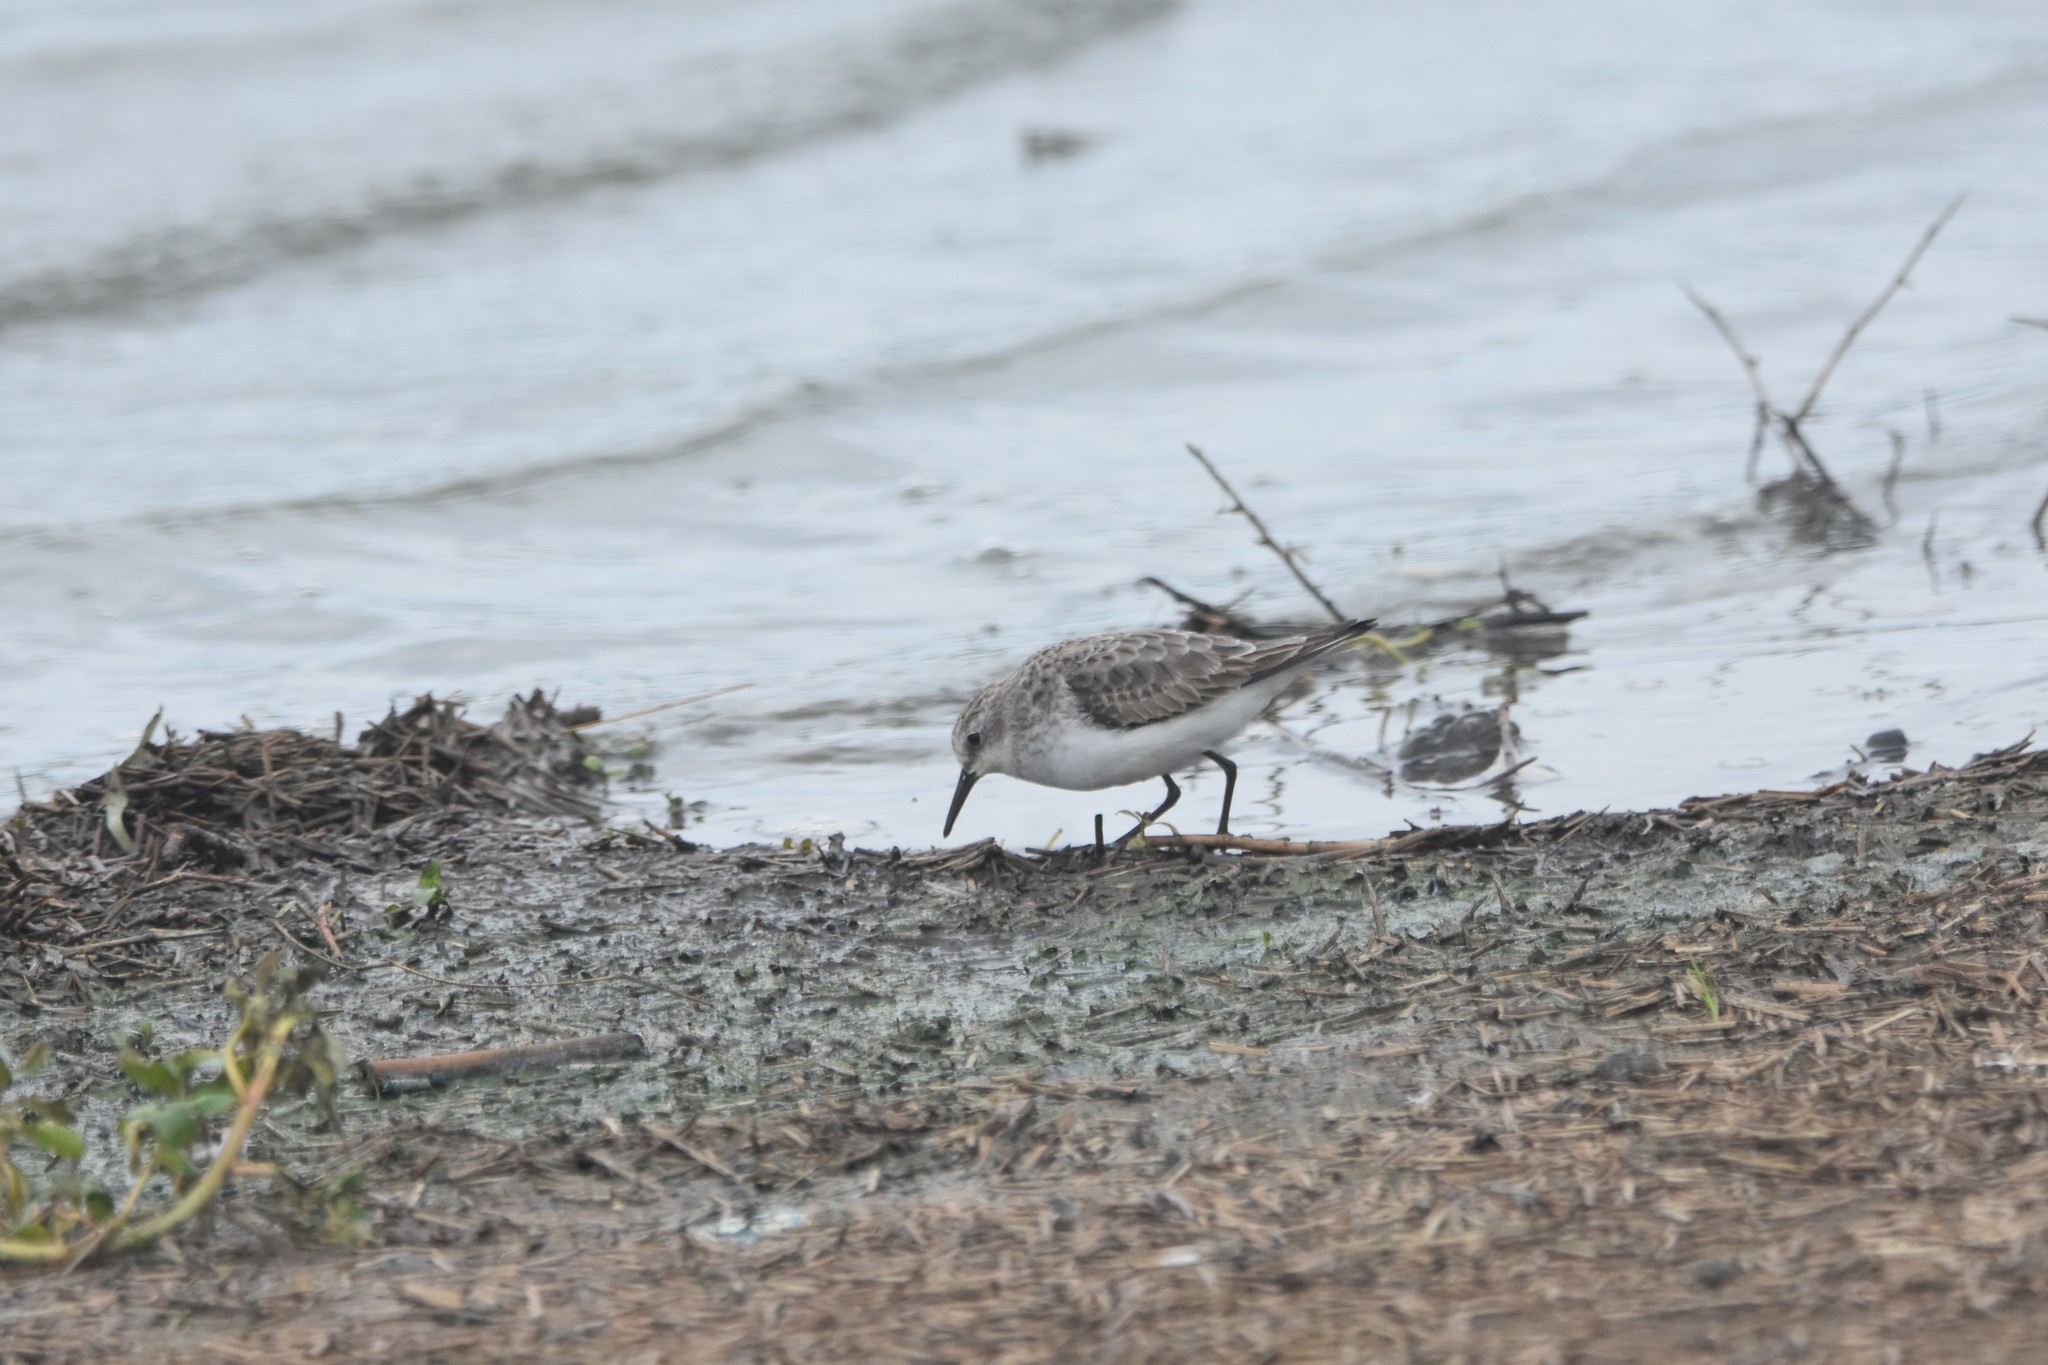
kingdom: Animalia
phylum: Chordata
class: Aves
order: Charadriiformes
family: Scolopacidae
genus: Calidris
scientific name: Calidris minuta
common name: Little stint
